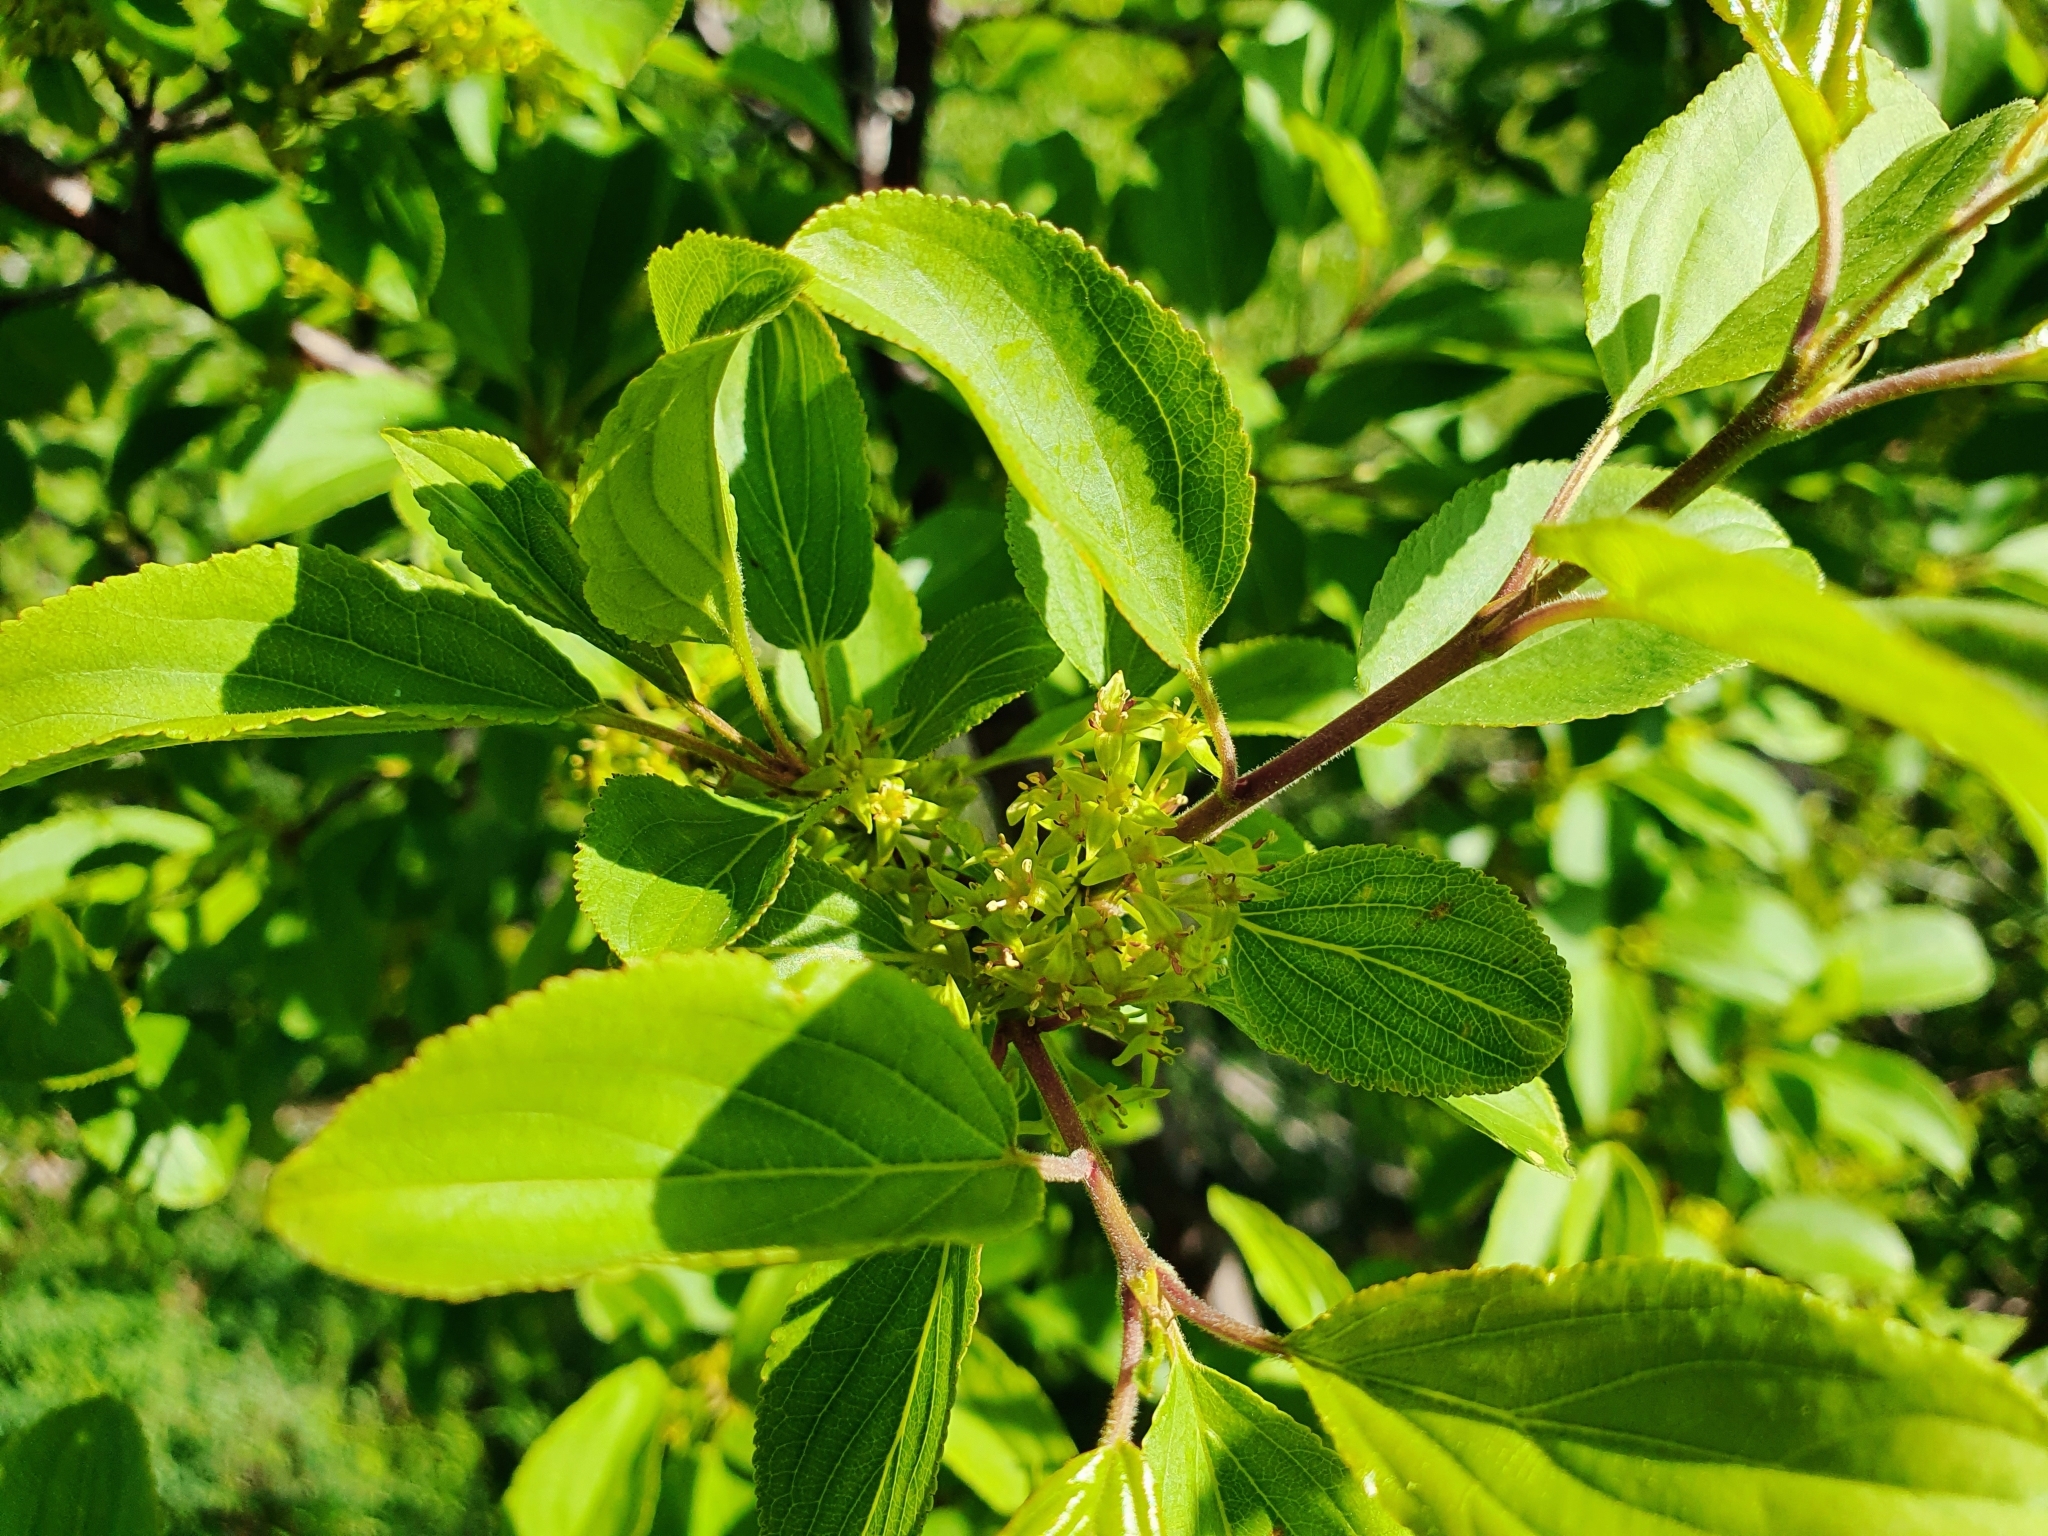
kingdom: Plantae
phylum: Tracheophyta
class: Magnoliopsida
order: Rosales
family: Rhamnaceae
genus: Rhamnus
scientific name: Rhamnus cathartica
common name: Common buckthorn
